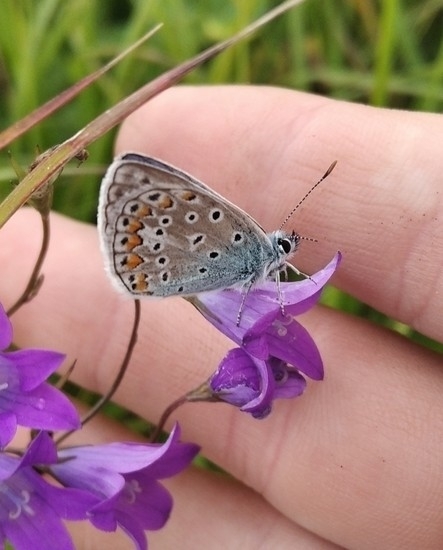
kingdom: Animalia
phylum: Arthropoda
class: Insecta
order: Lepidoptera
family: Lycaenidae
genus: Polyommatus
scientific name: Polyommatus icarus
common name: Common blue
